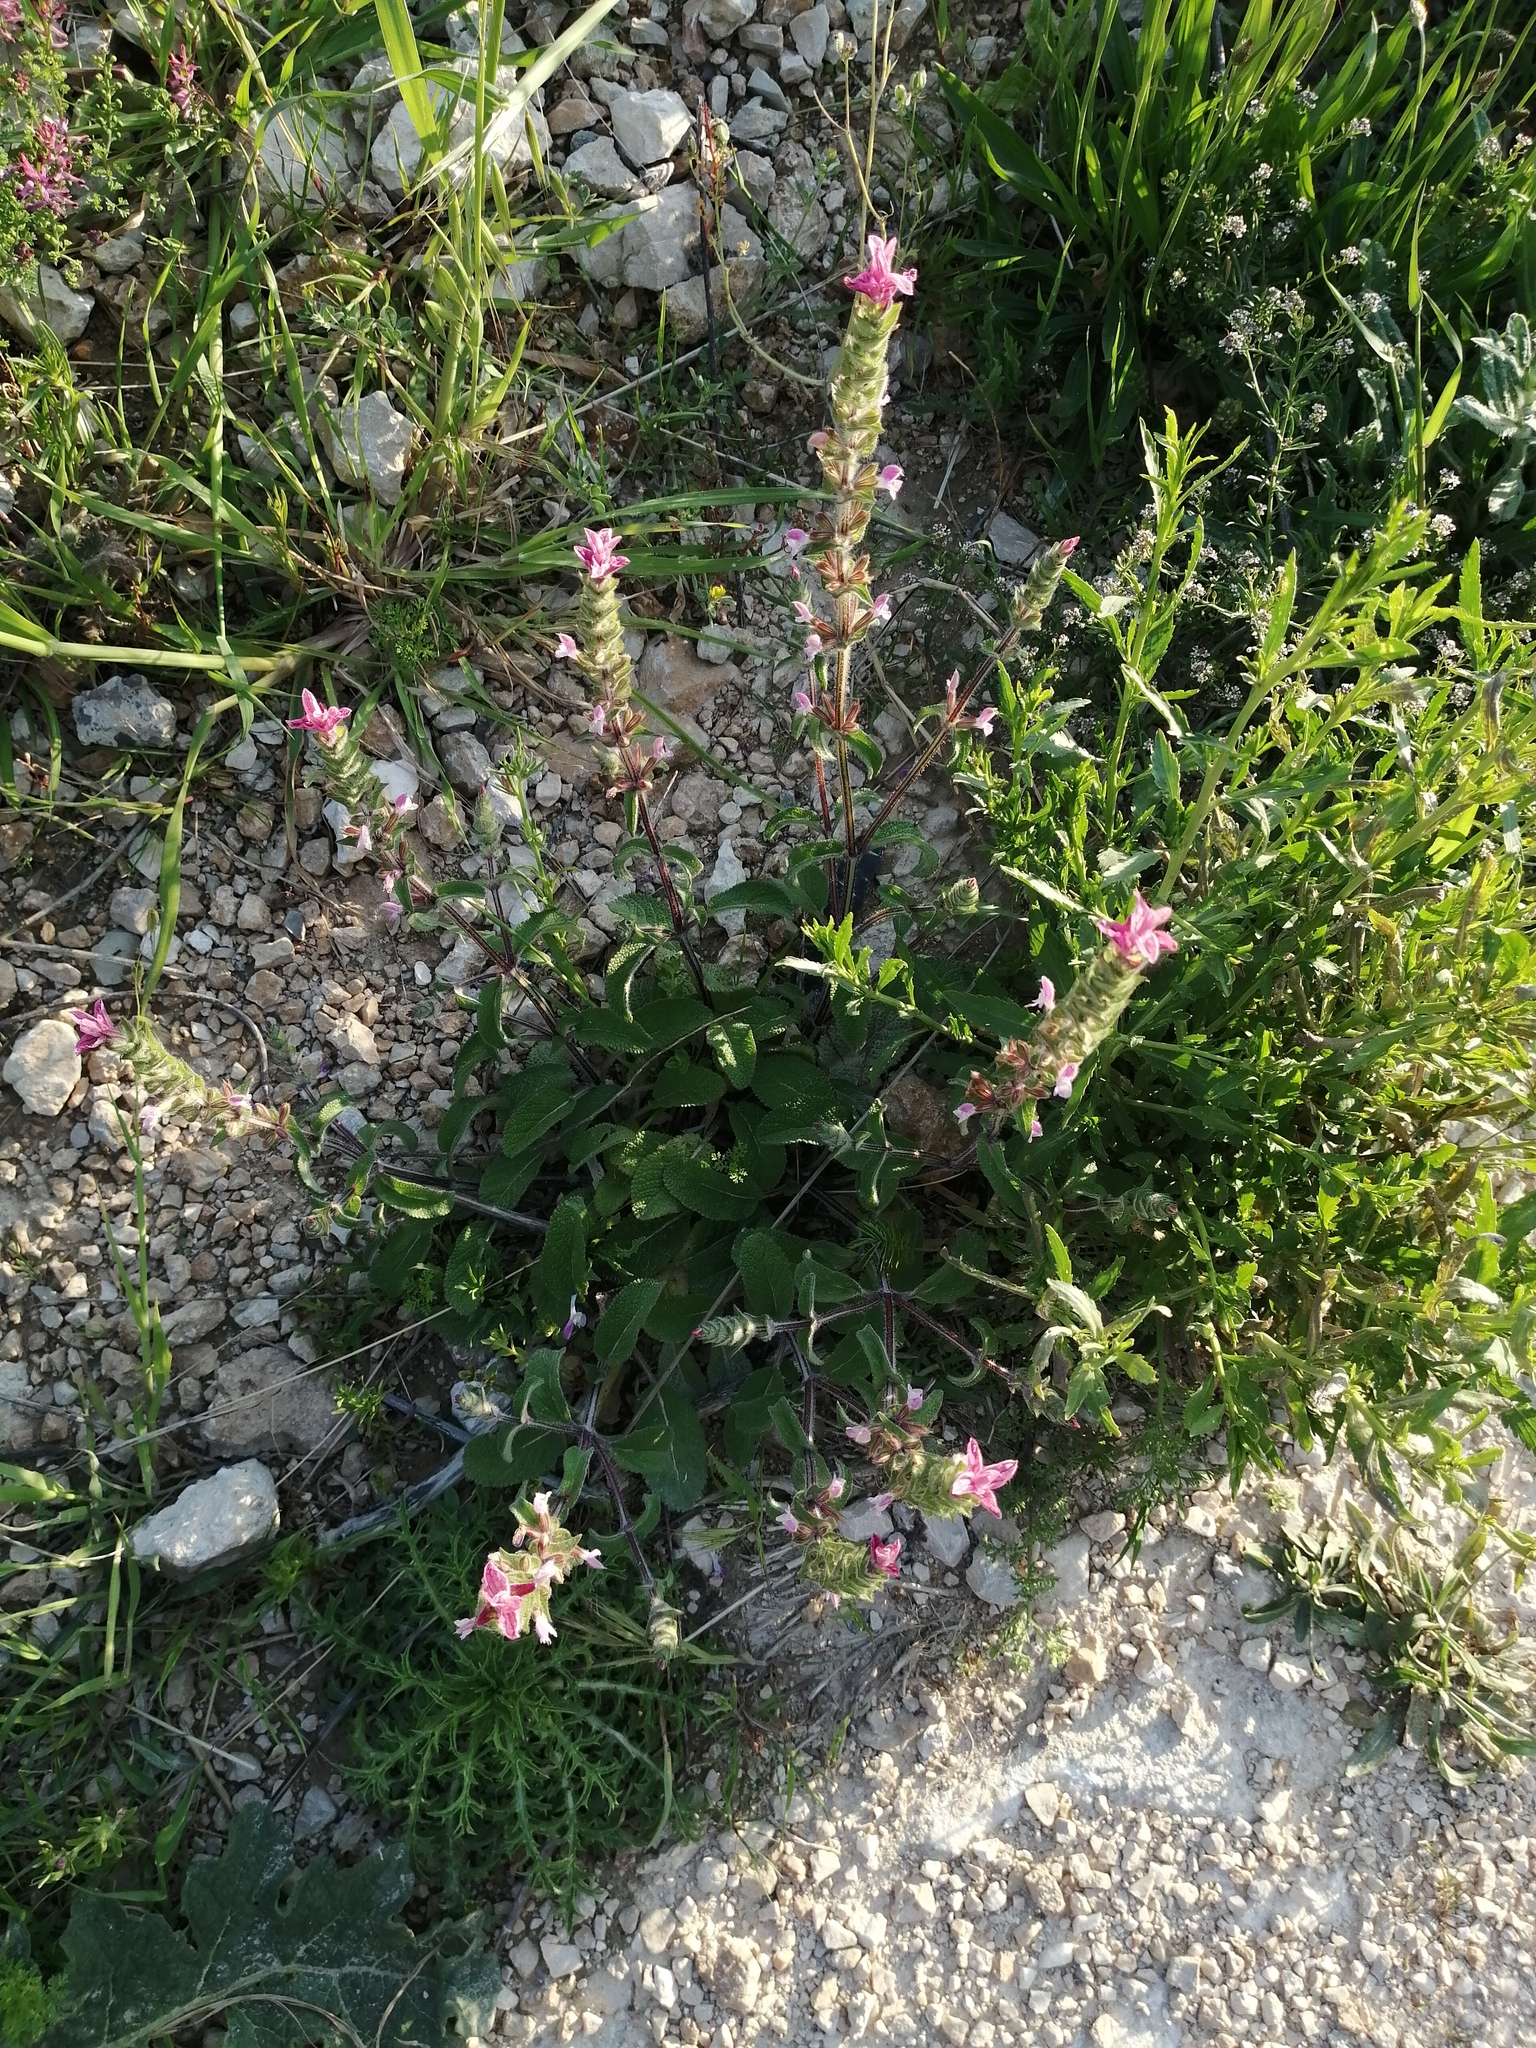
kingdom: Plantae
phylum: Tracheophyta
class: Magnoliopsida
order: Lamiales
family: Lamiaceae
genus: Salvia
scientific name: Salvia viridis
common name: Annual clary
